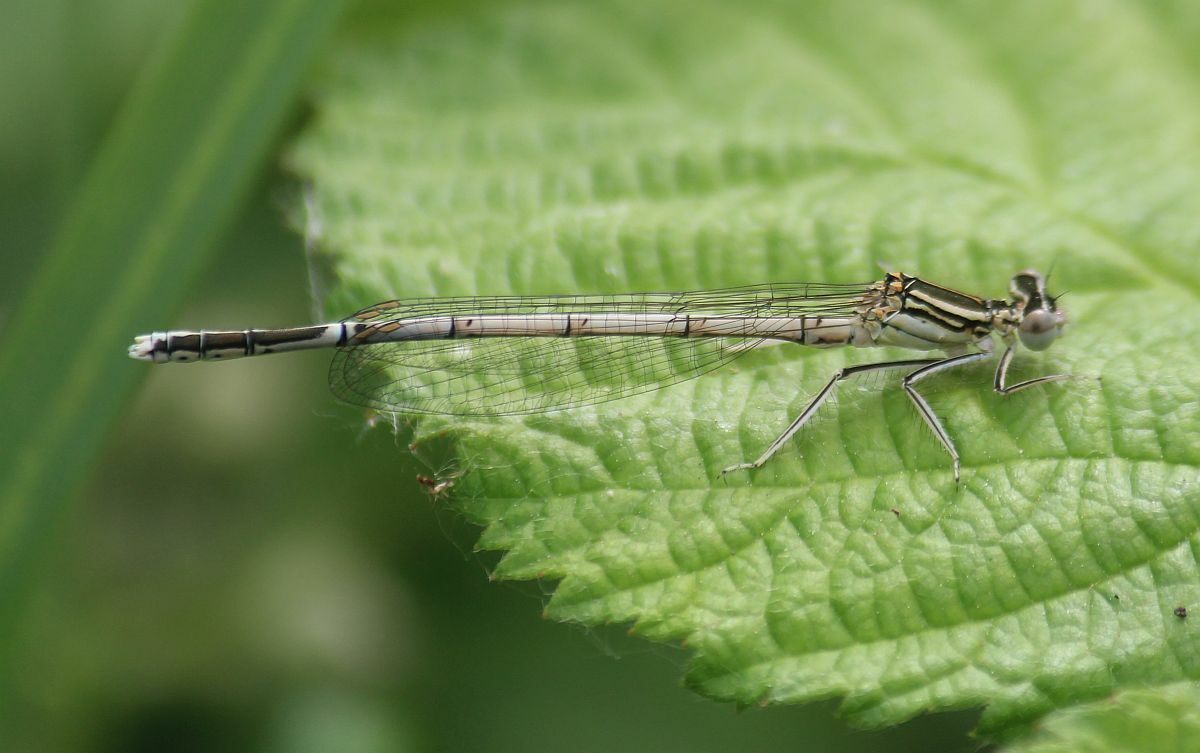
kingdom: Animalia
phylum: Arthropoda
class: Insecta
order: Odonata
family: Platycnemididae
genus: Platycnemis
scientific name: Platycnemis pennipes
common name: White-legged damselfly
